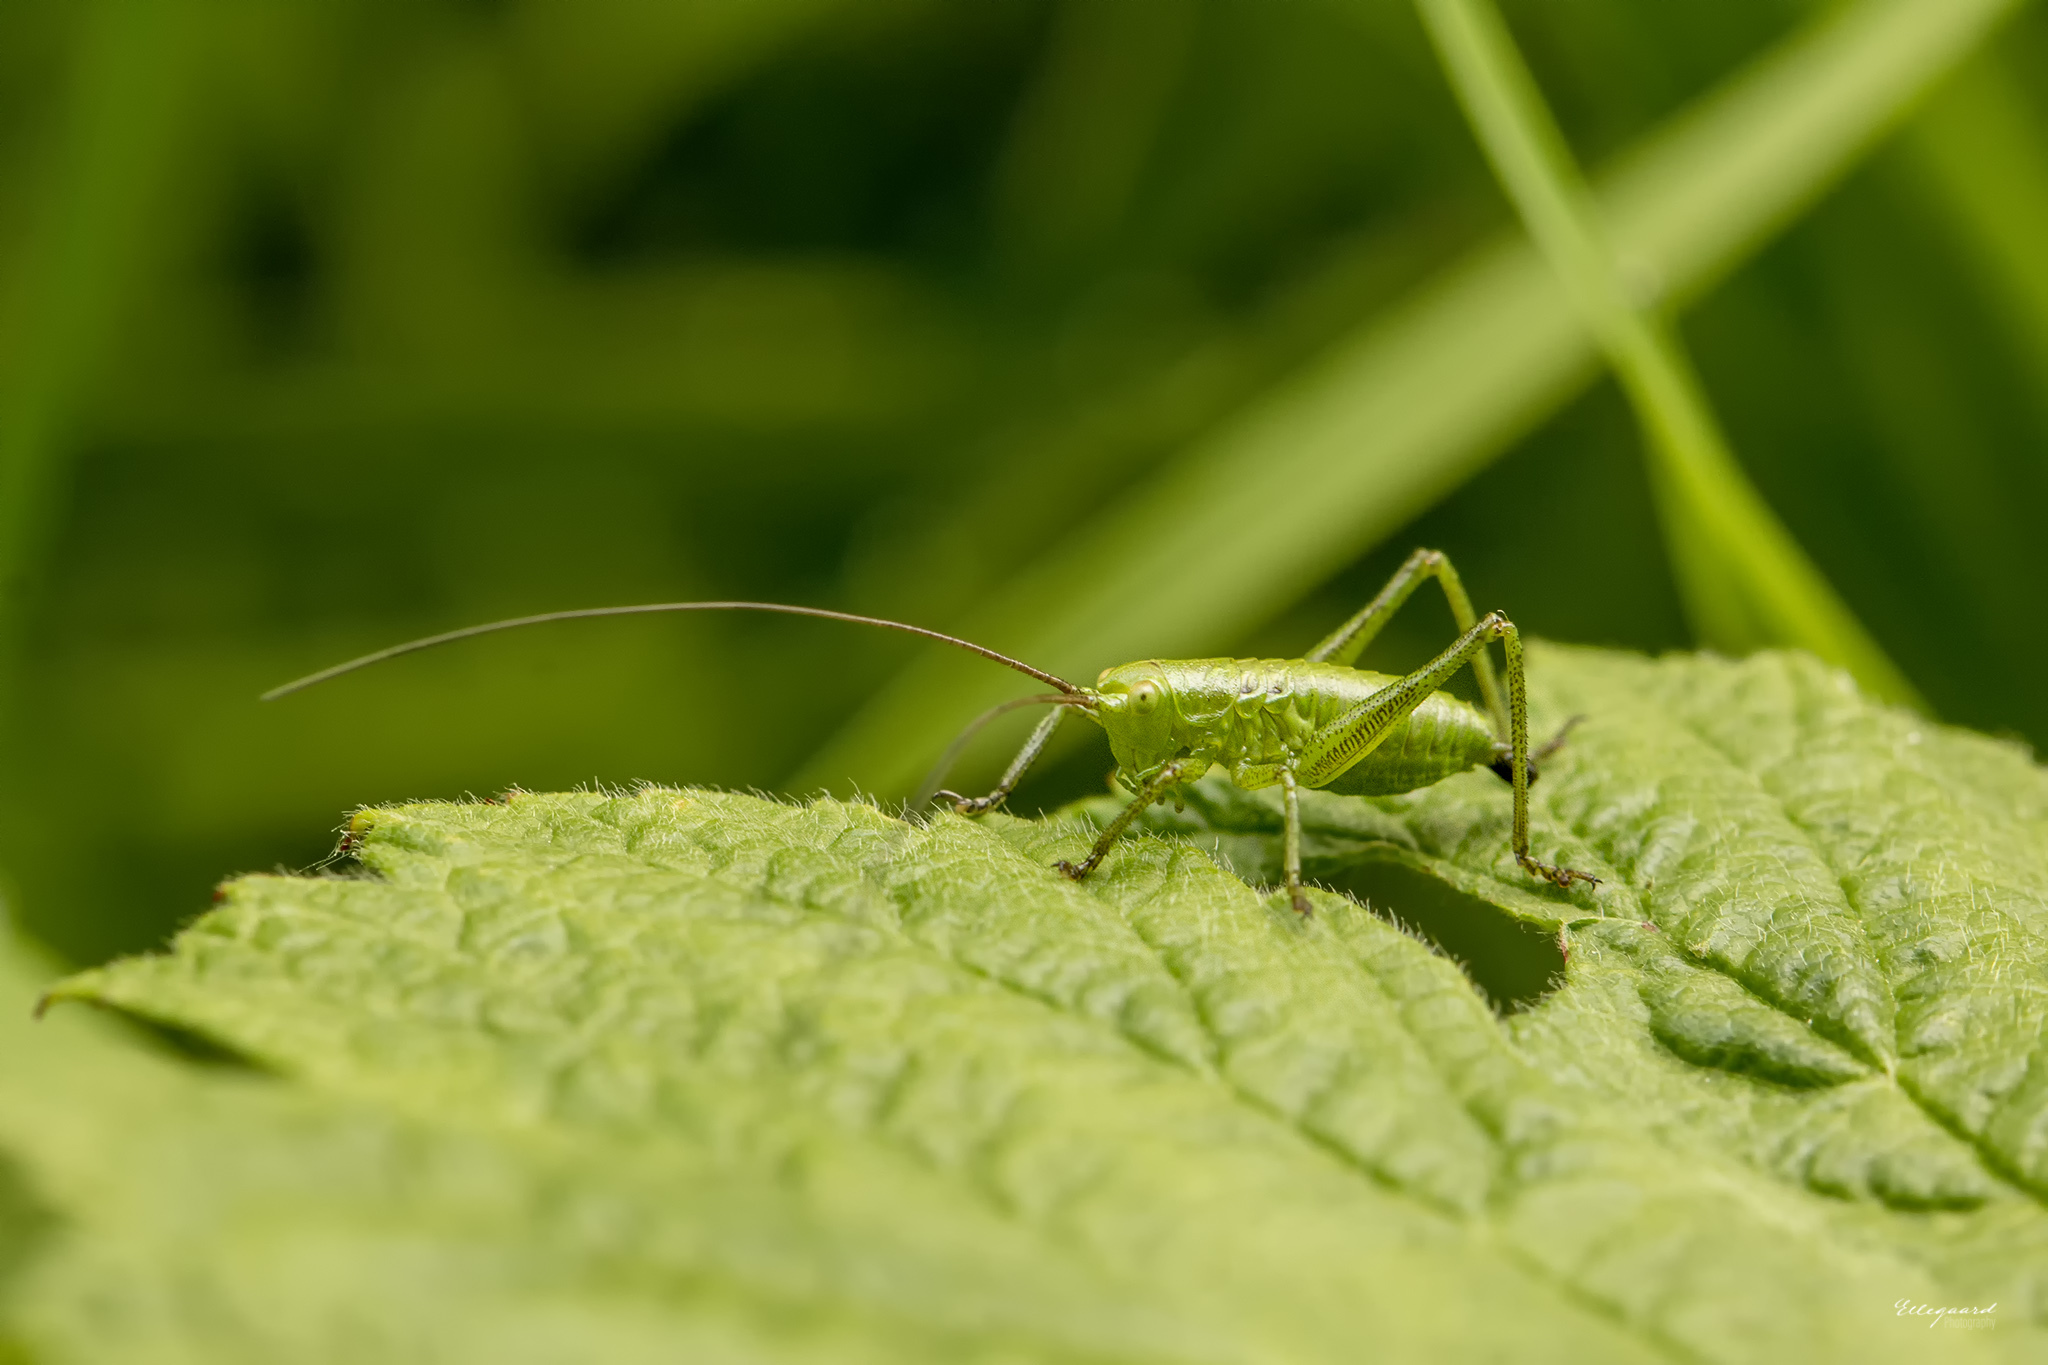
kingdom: Animalia
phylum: Arthropoda
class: Insecta
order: Orthoptera
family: Tettigoniidae
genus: Tettigonia
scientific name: Tettigonia cantans
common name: Upland green bush-cricket
